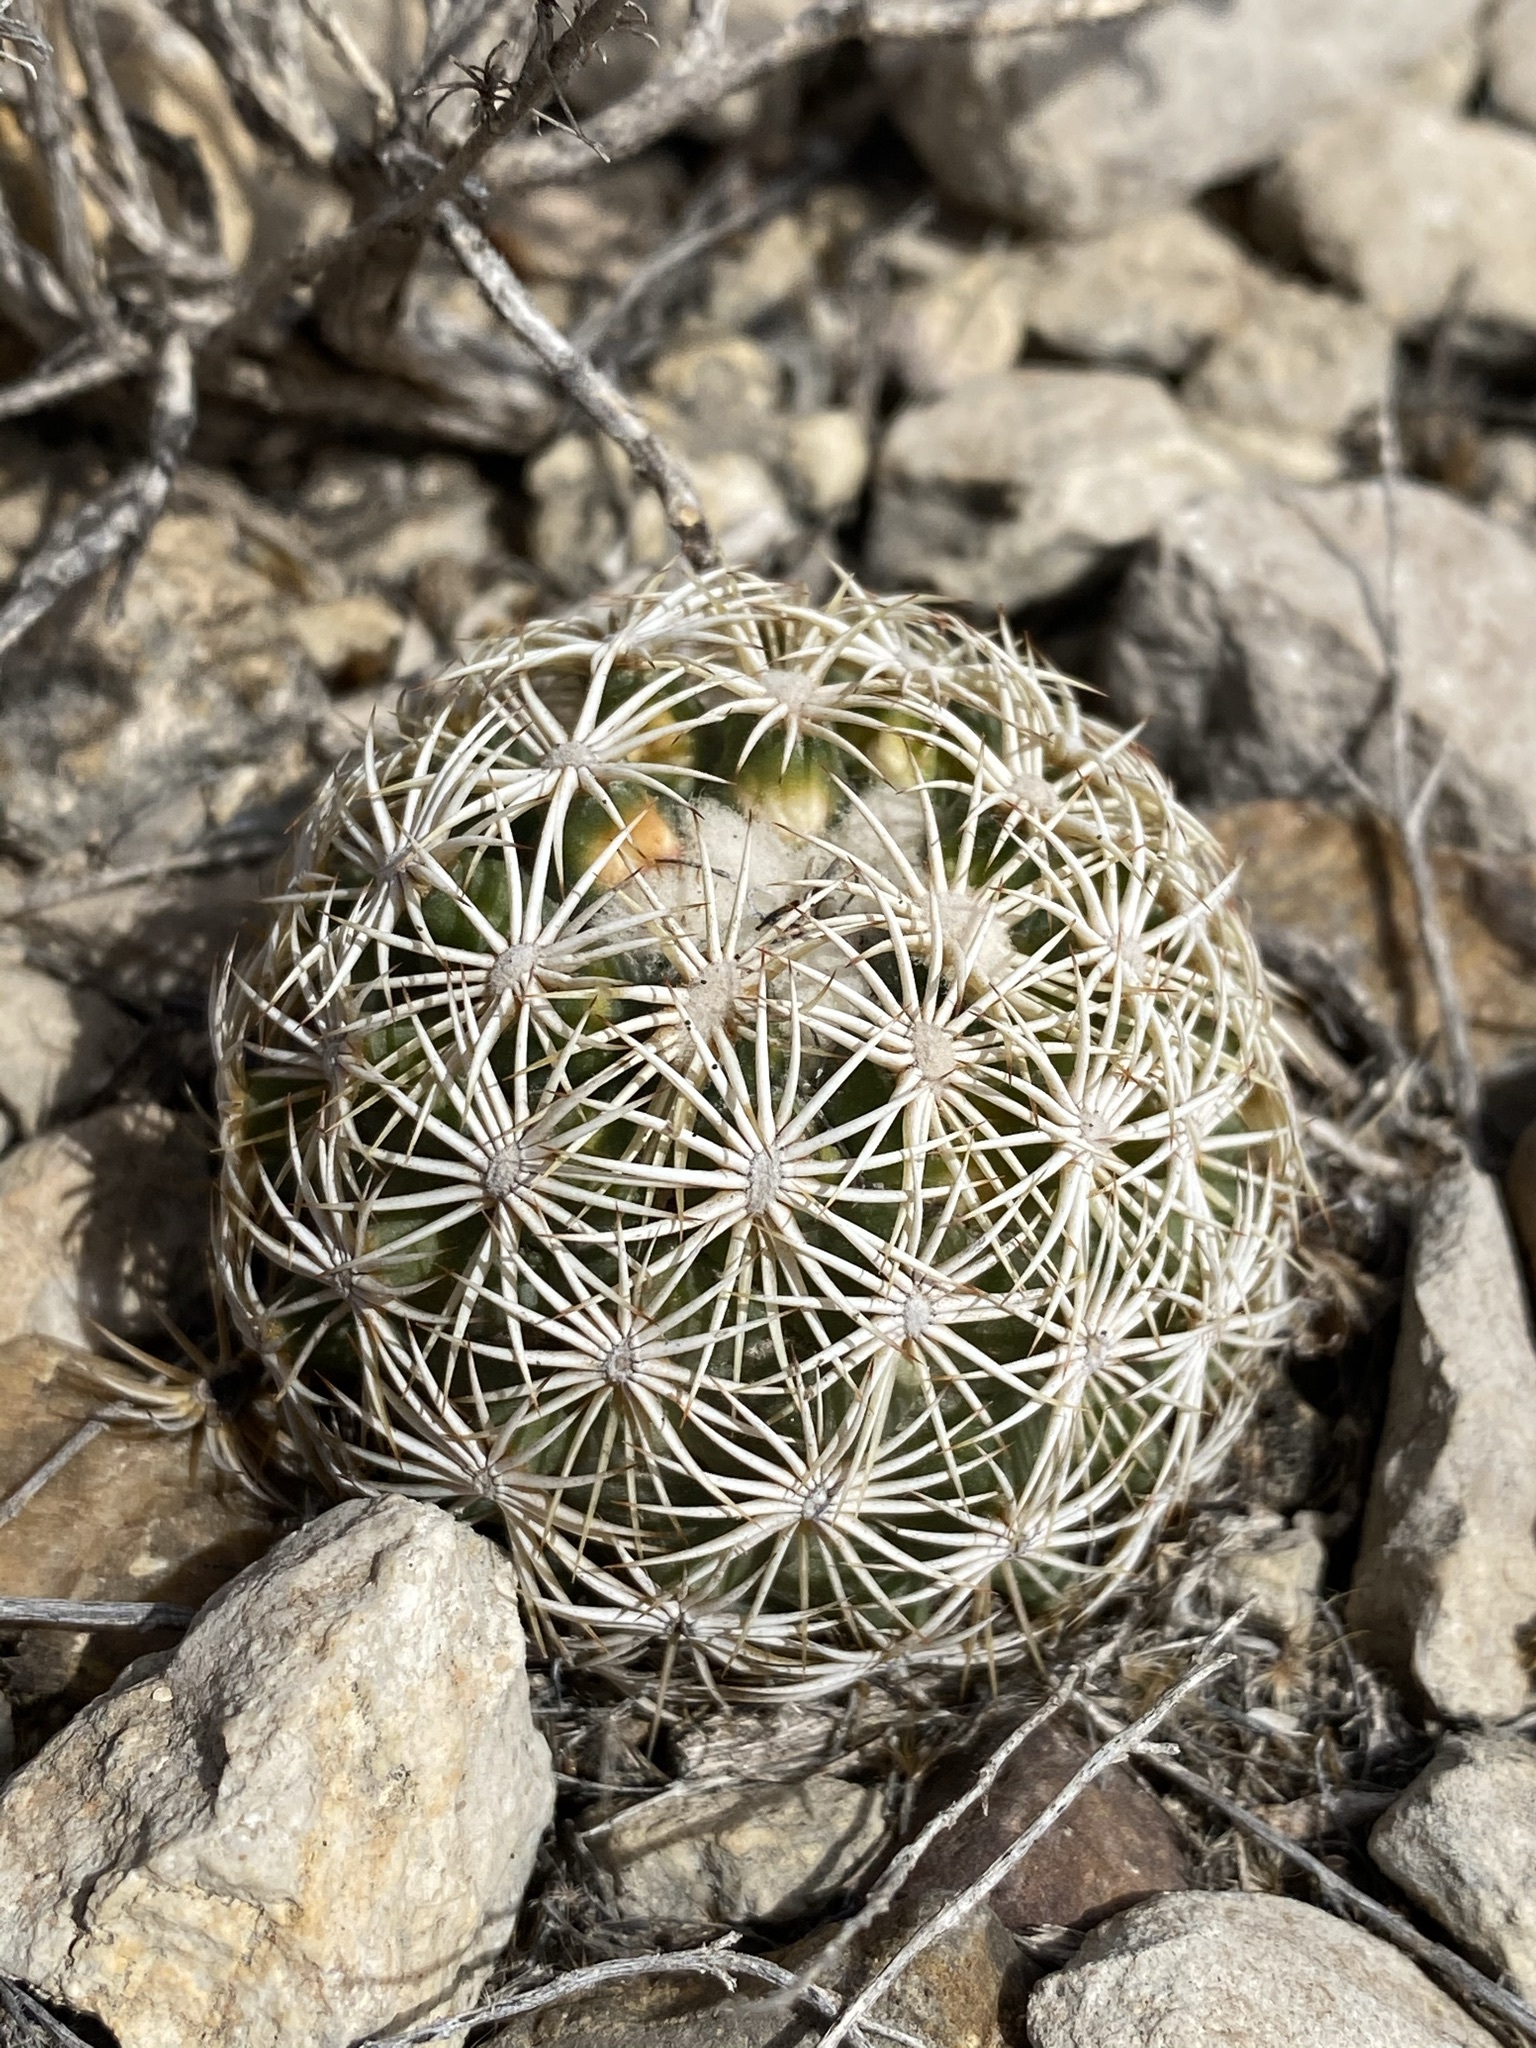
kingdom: Plantae
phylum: Tracheophyta
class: Magnoliopsida
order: Caryophyllales
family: Cactaceae
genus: Coryphantha
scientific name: Coryphantha echinus
